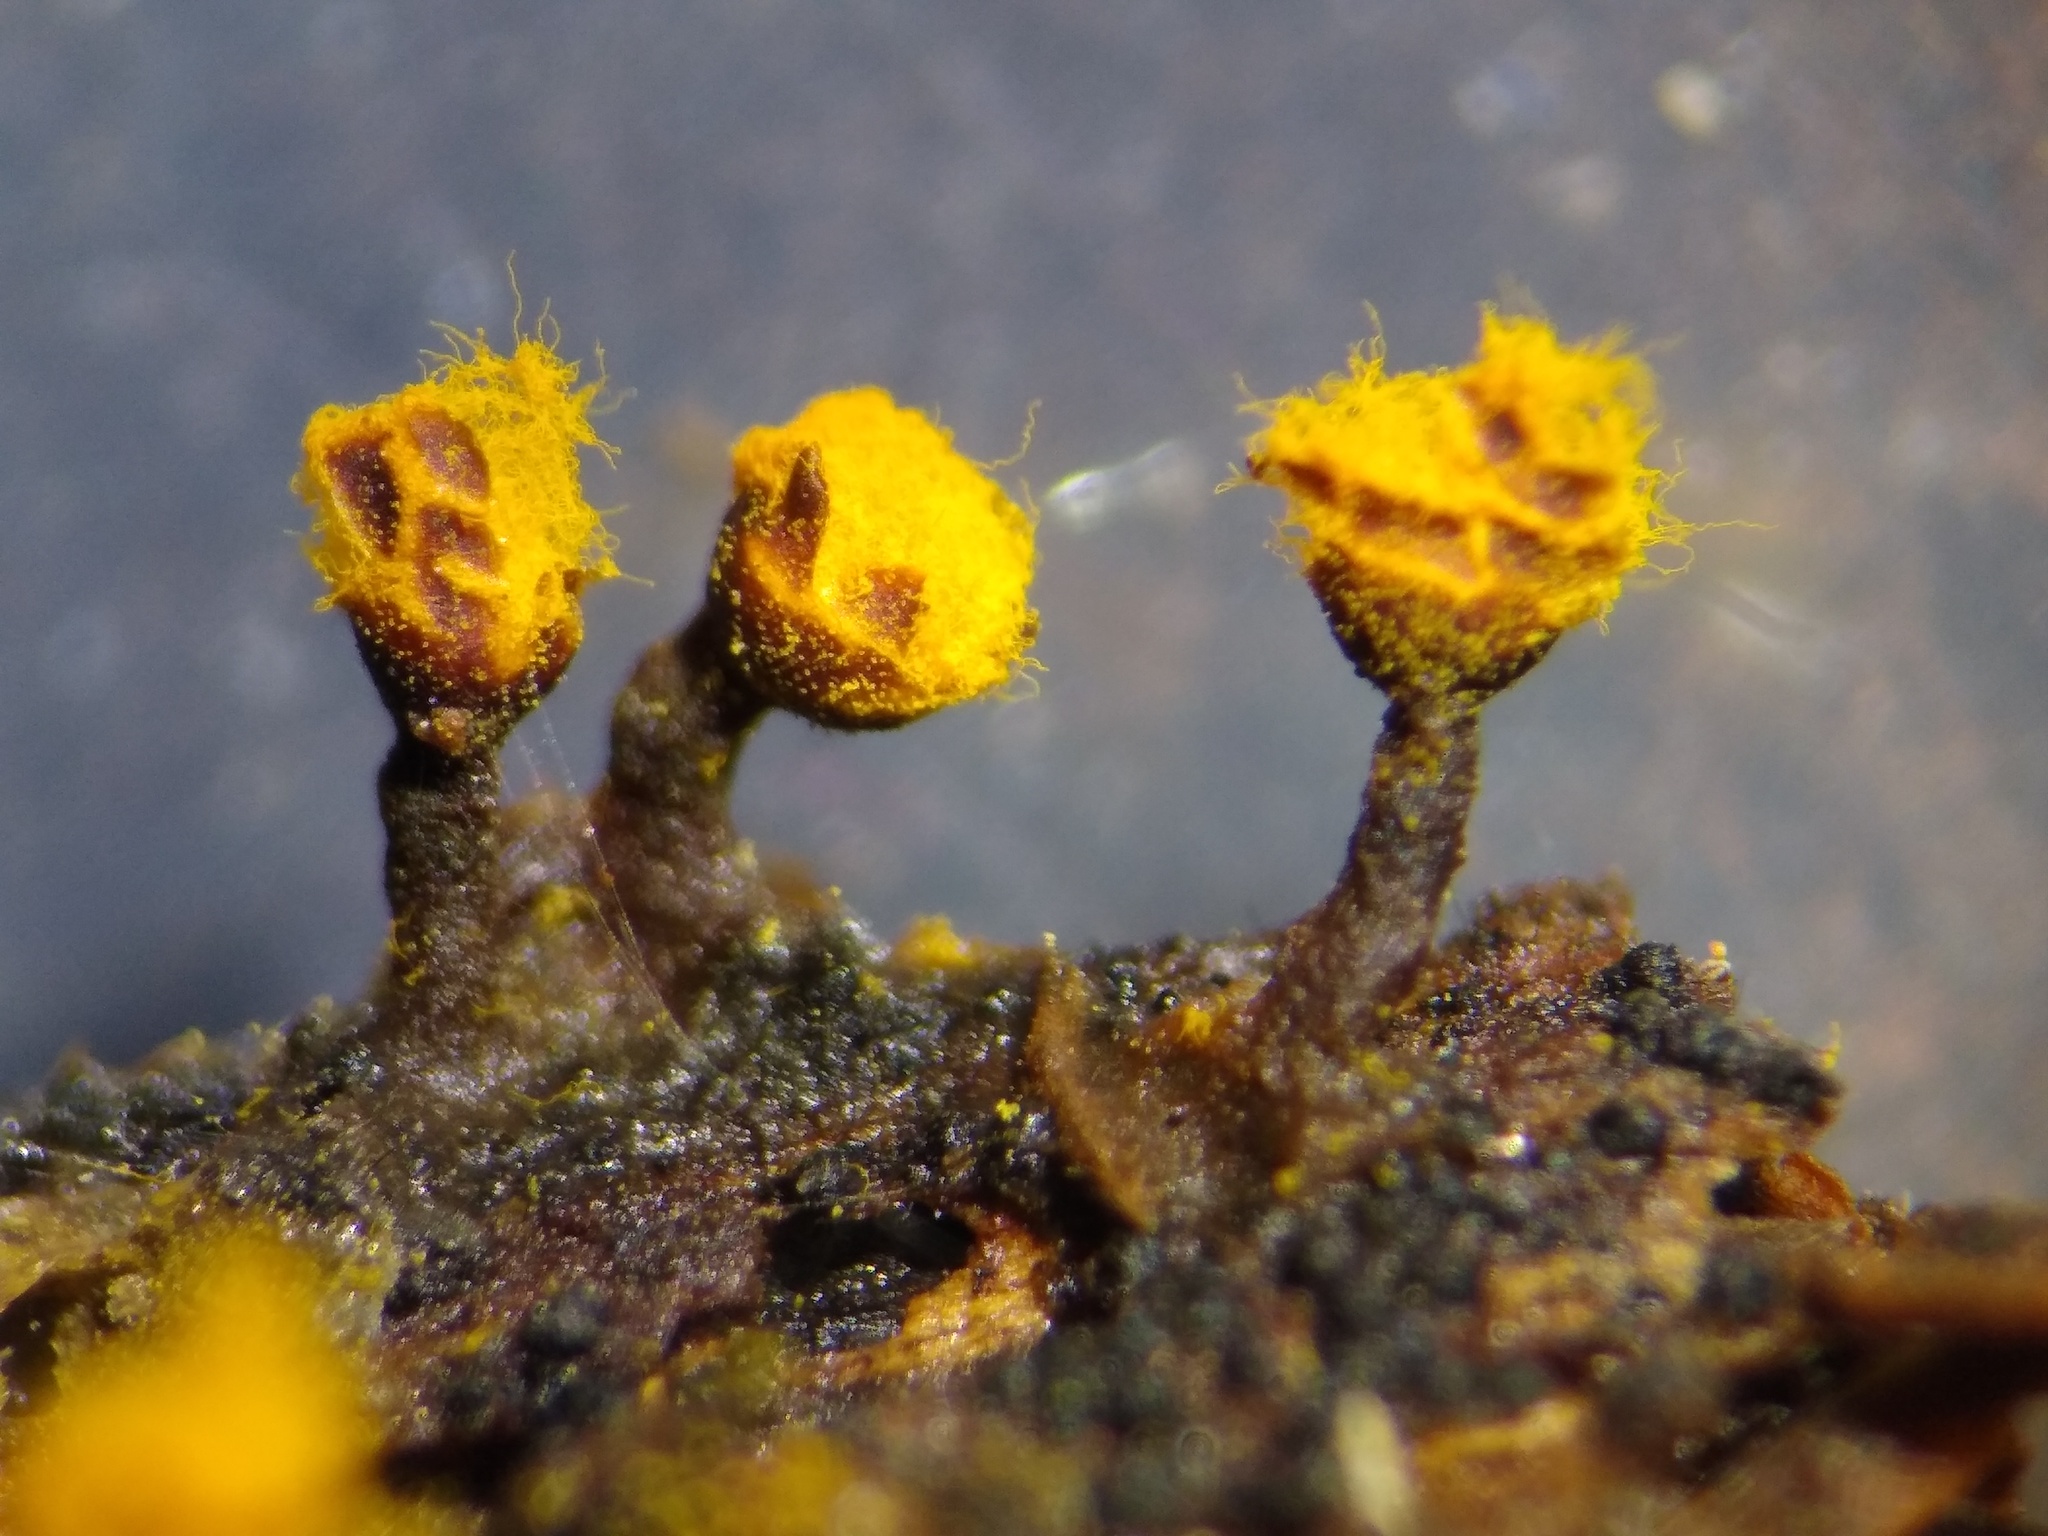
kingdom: Protozoa
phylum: Mycetozoa
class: Myxomycetes
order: Trichiales
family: Trichiaceae
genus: Trichia
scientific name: Trichia erecta
